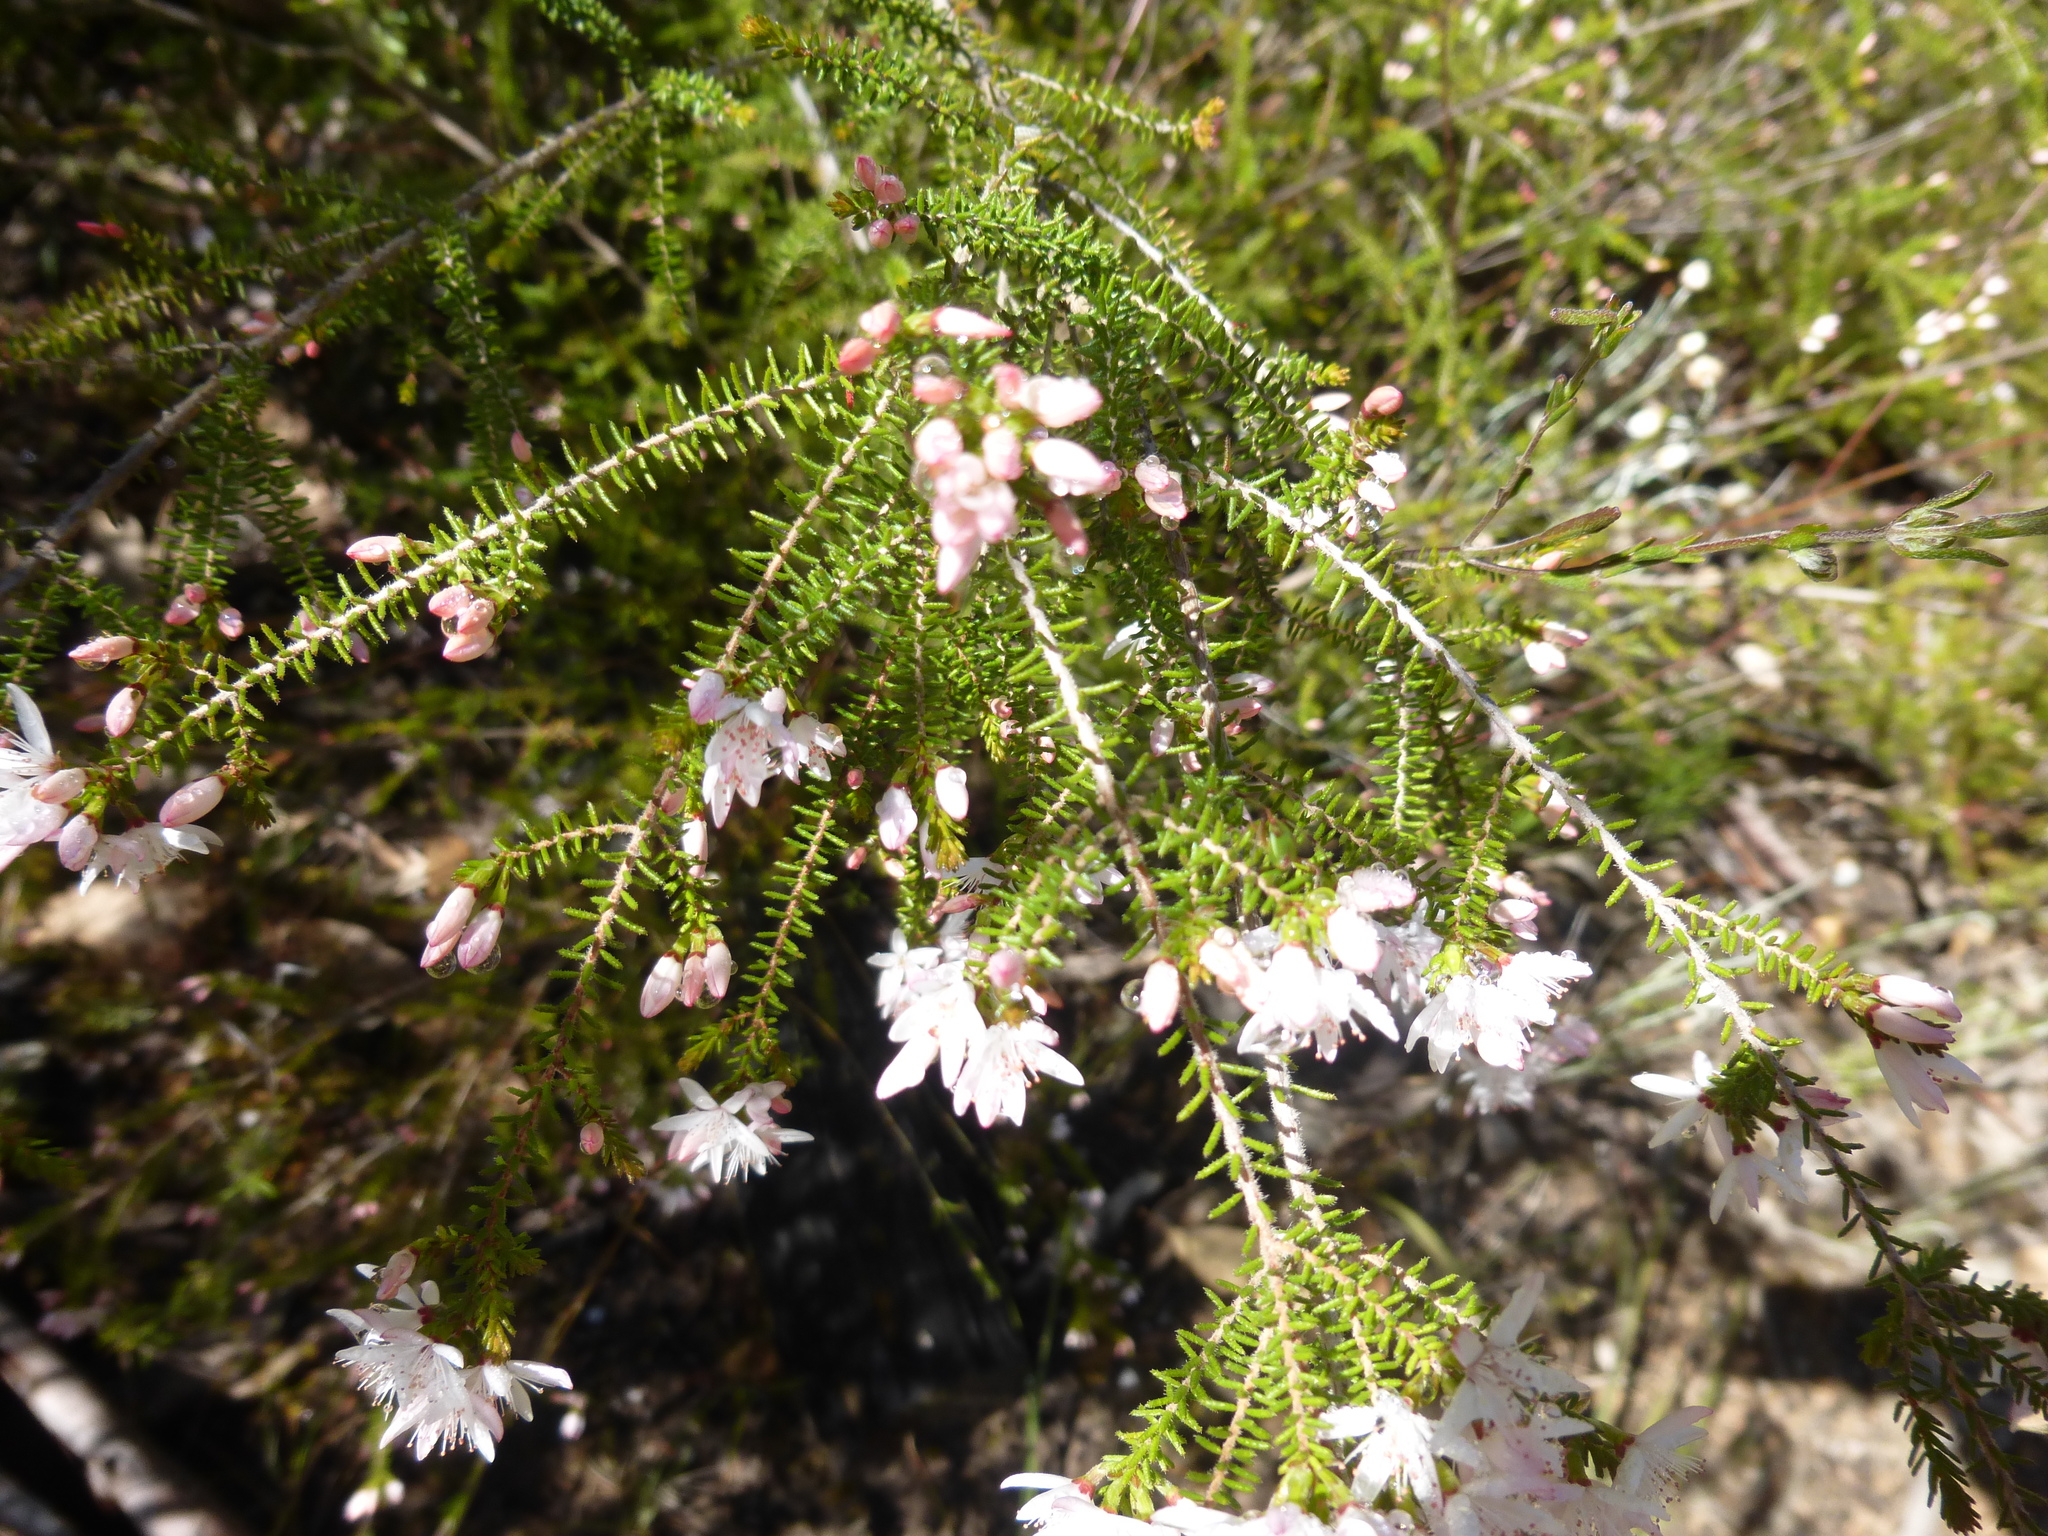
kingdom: Plantae
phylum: Tracheophyta
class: Magnoliopsida
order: Myrtales
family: Myrtaceae
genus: Calytrix
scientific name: Calytrix alpestris
